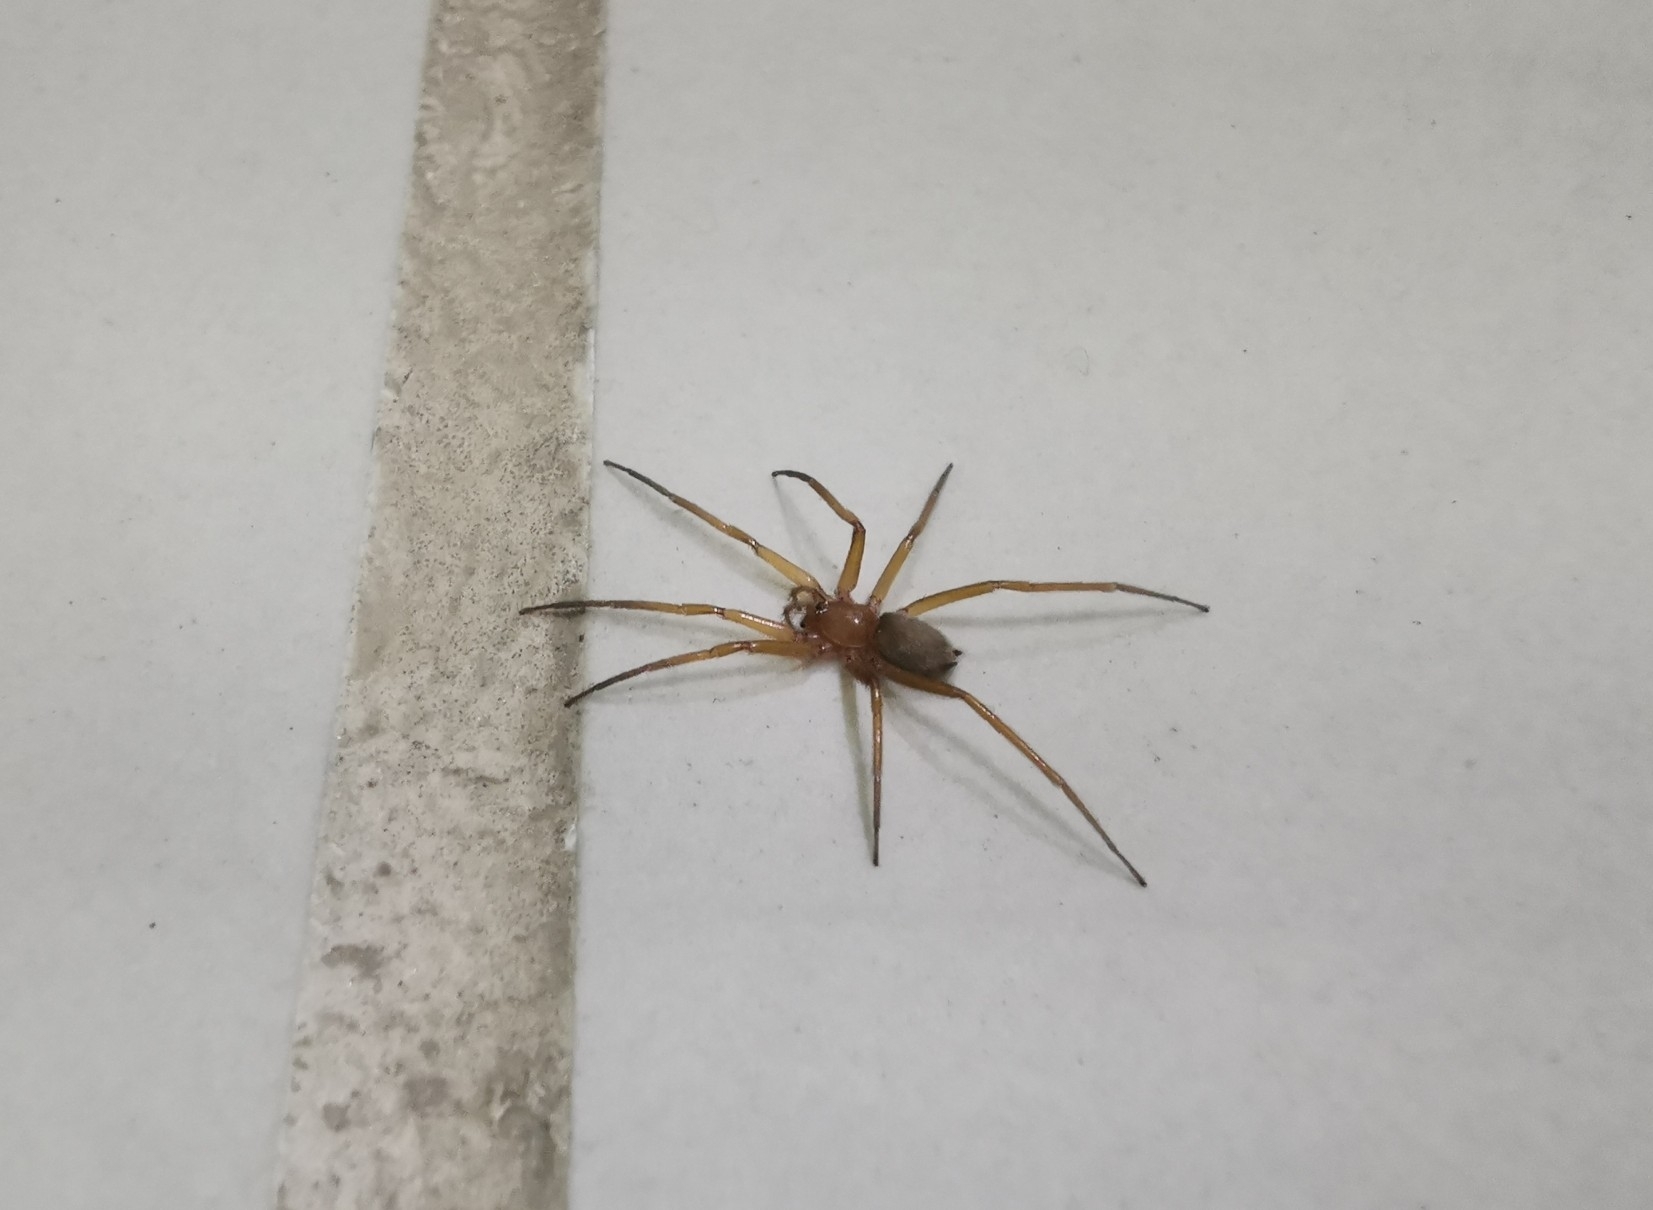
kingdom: Animalia
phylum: Arthropoda
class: Arachnida
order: Araneae
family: Prodidomidae
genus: Zimiris
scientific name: Zimiris doriae
